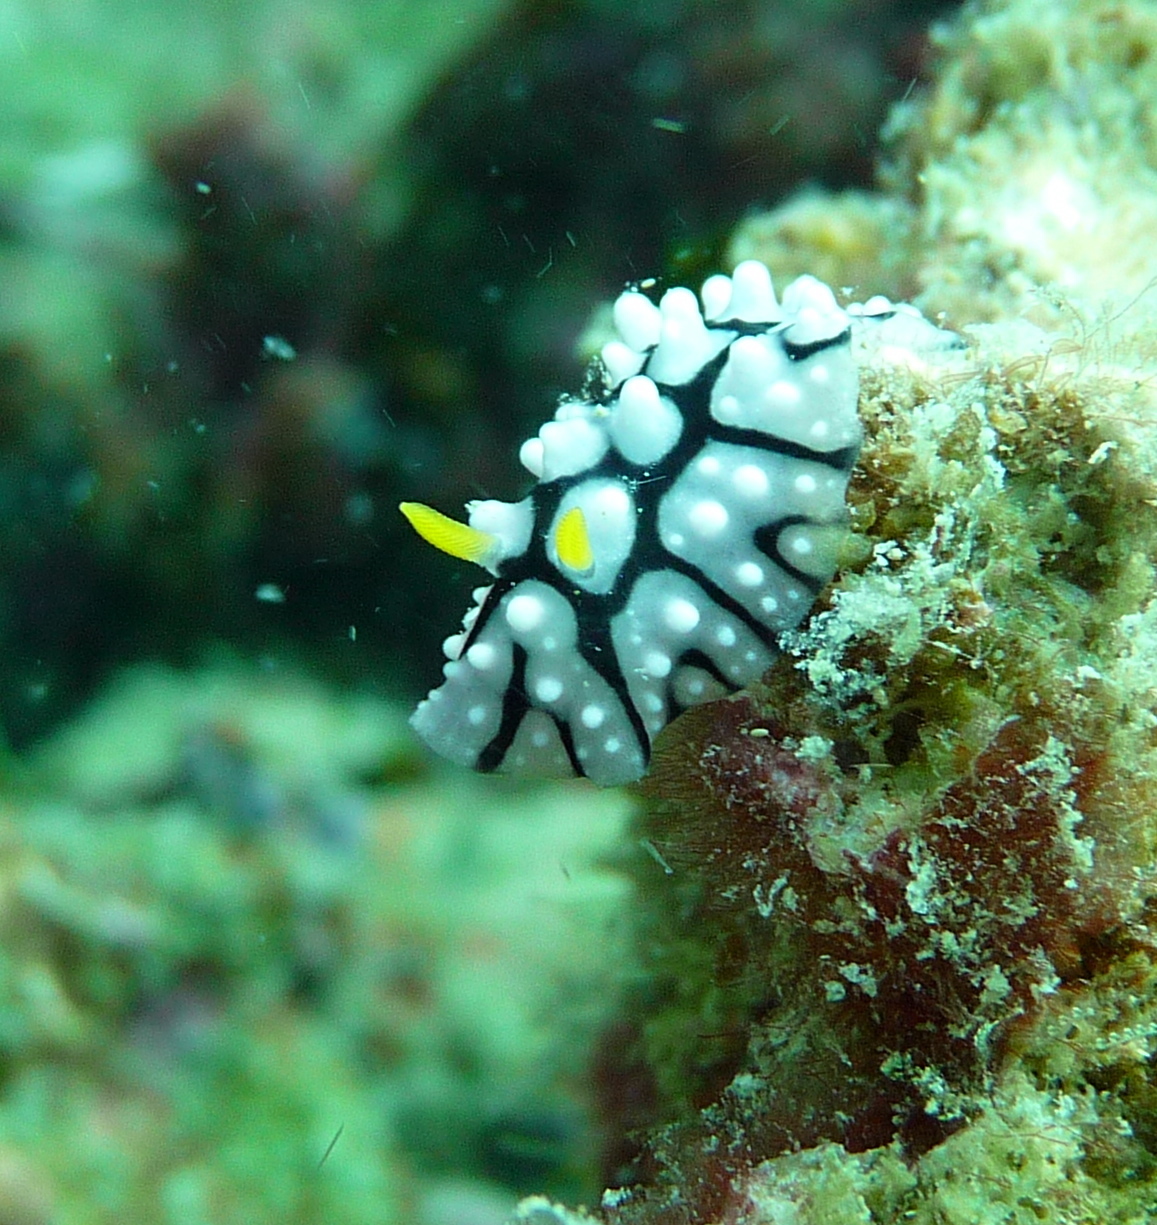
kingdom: Animalia
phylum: Mollusca
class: Gastropoda
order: Nudibranchia
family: Phyllidiidae
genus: Phyllidia
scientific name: Phyllidia varicosa
